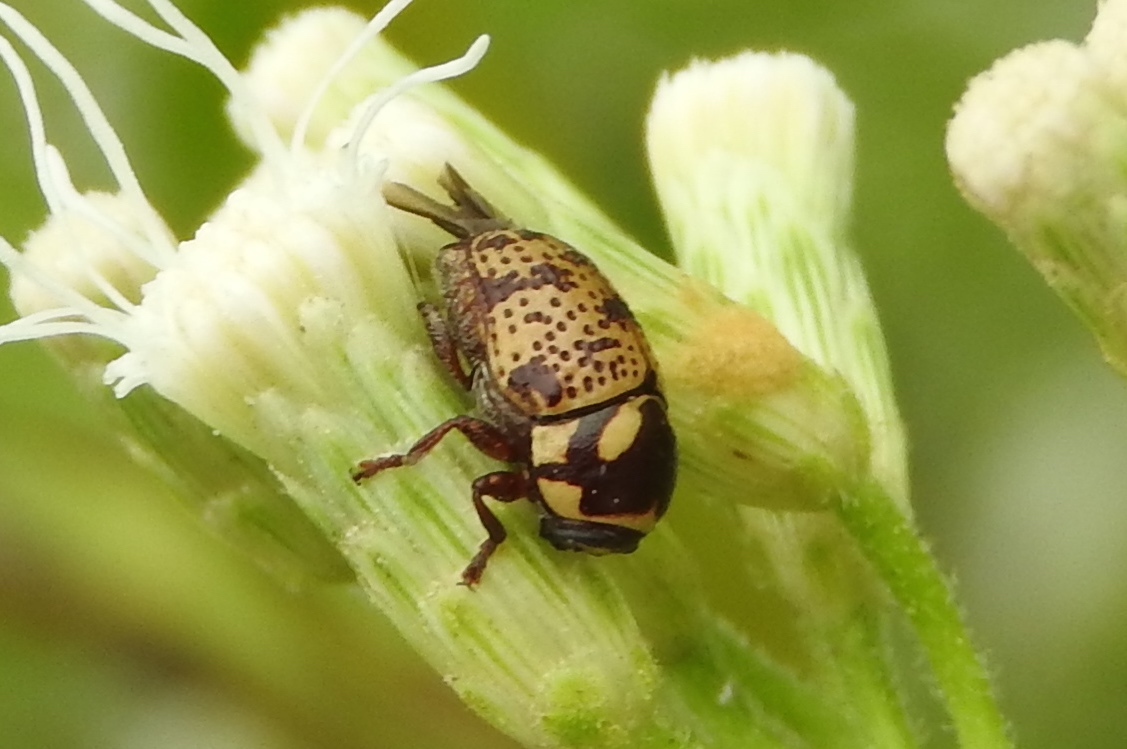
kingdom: Animalia
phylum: Arthropoda
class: Insecta
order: Coleoptera
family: Chrysomelidae
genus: Cryptocephalus
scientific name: Cryptocephalus
